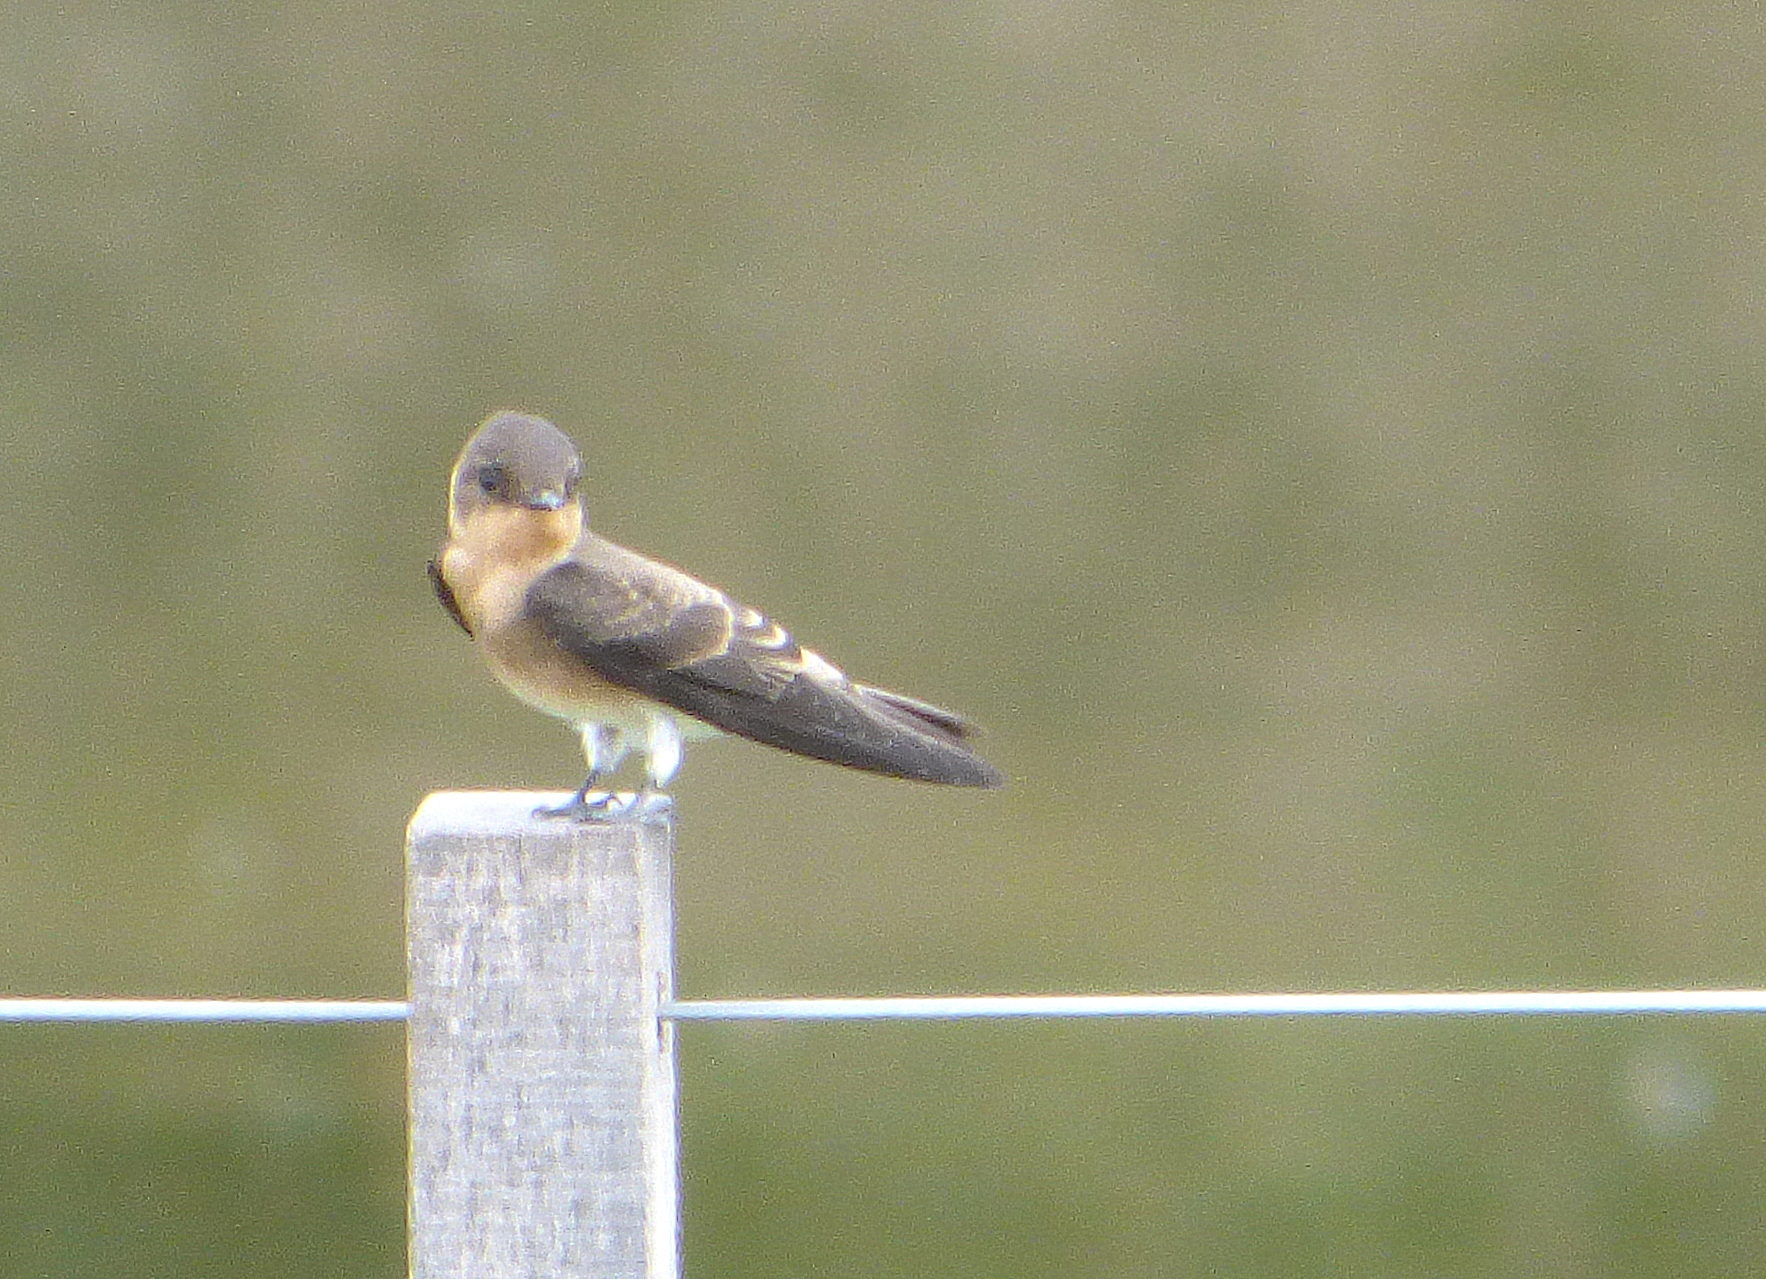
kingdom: Animalia
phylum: Chordata
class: Aves
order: Passeriformes
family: Hirundinidae
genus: Stelgidopteryx
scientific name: Stelgidopteryx ruficollis
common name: Southern rough-winged swallow
